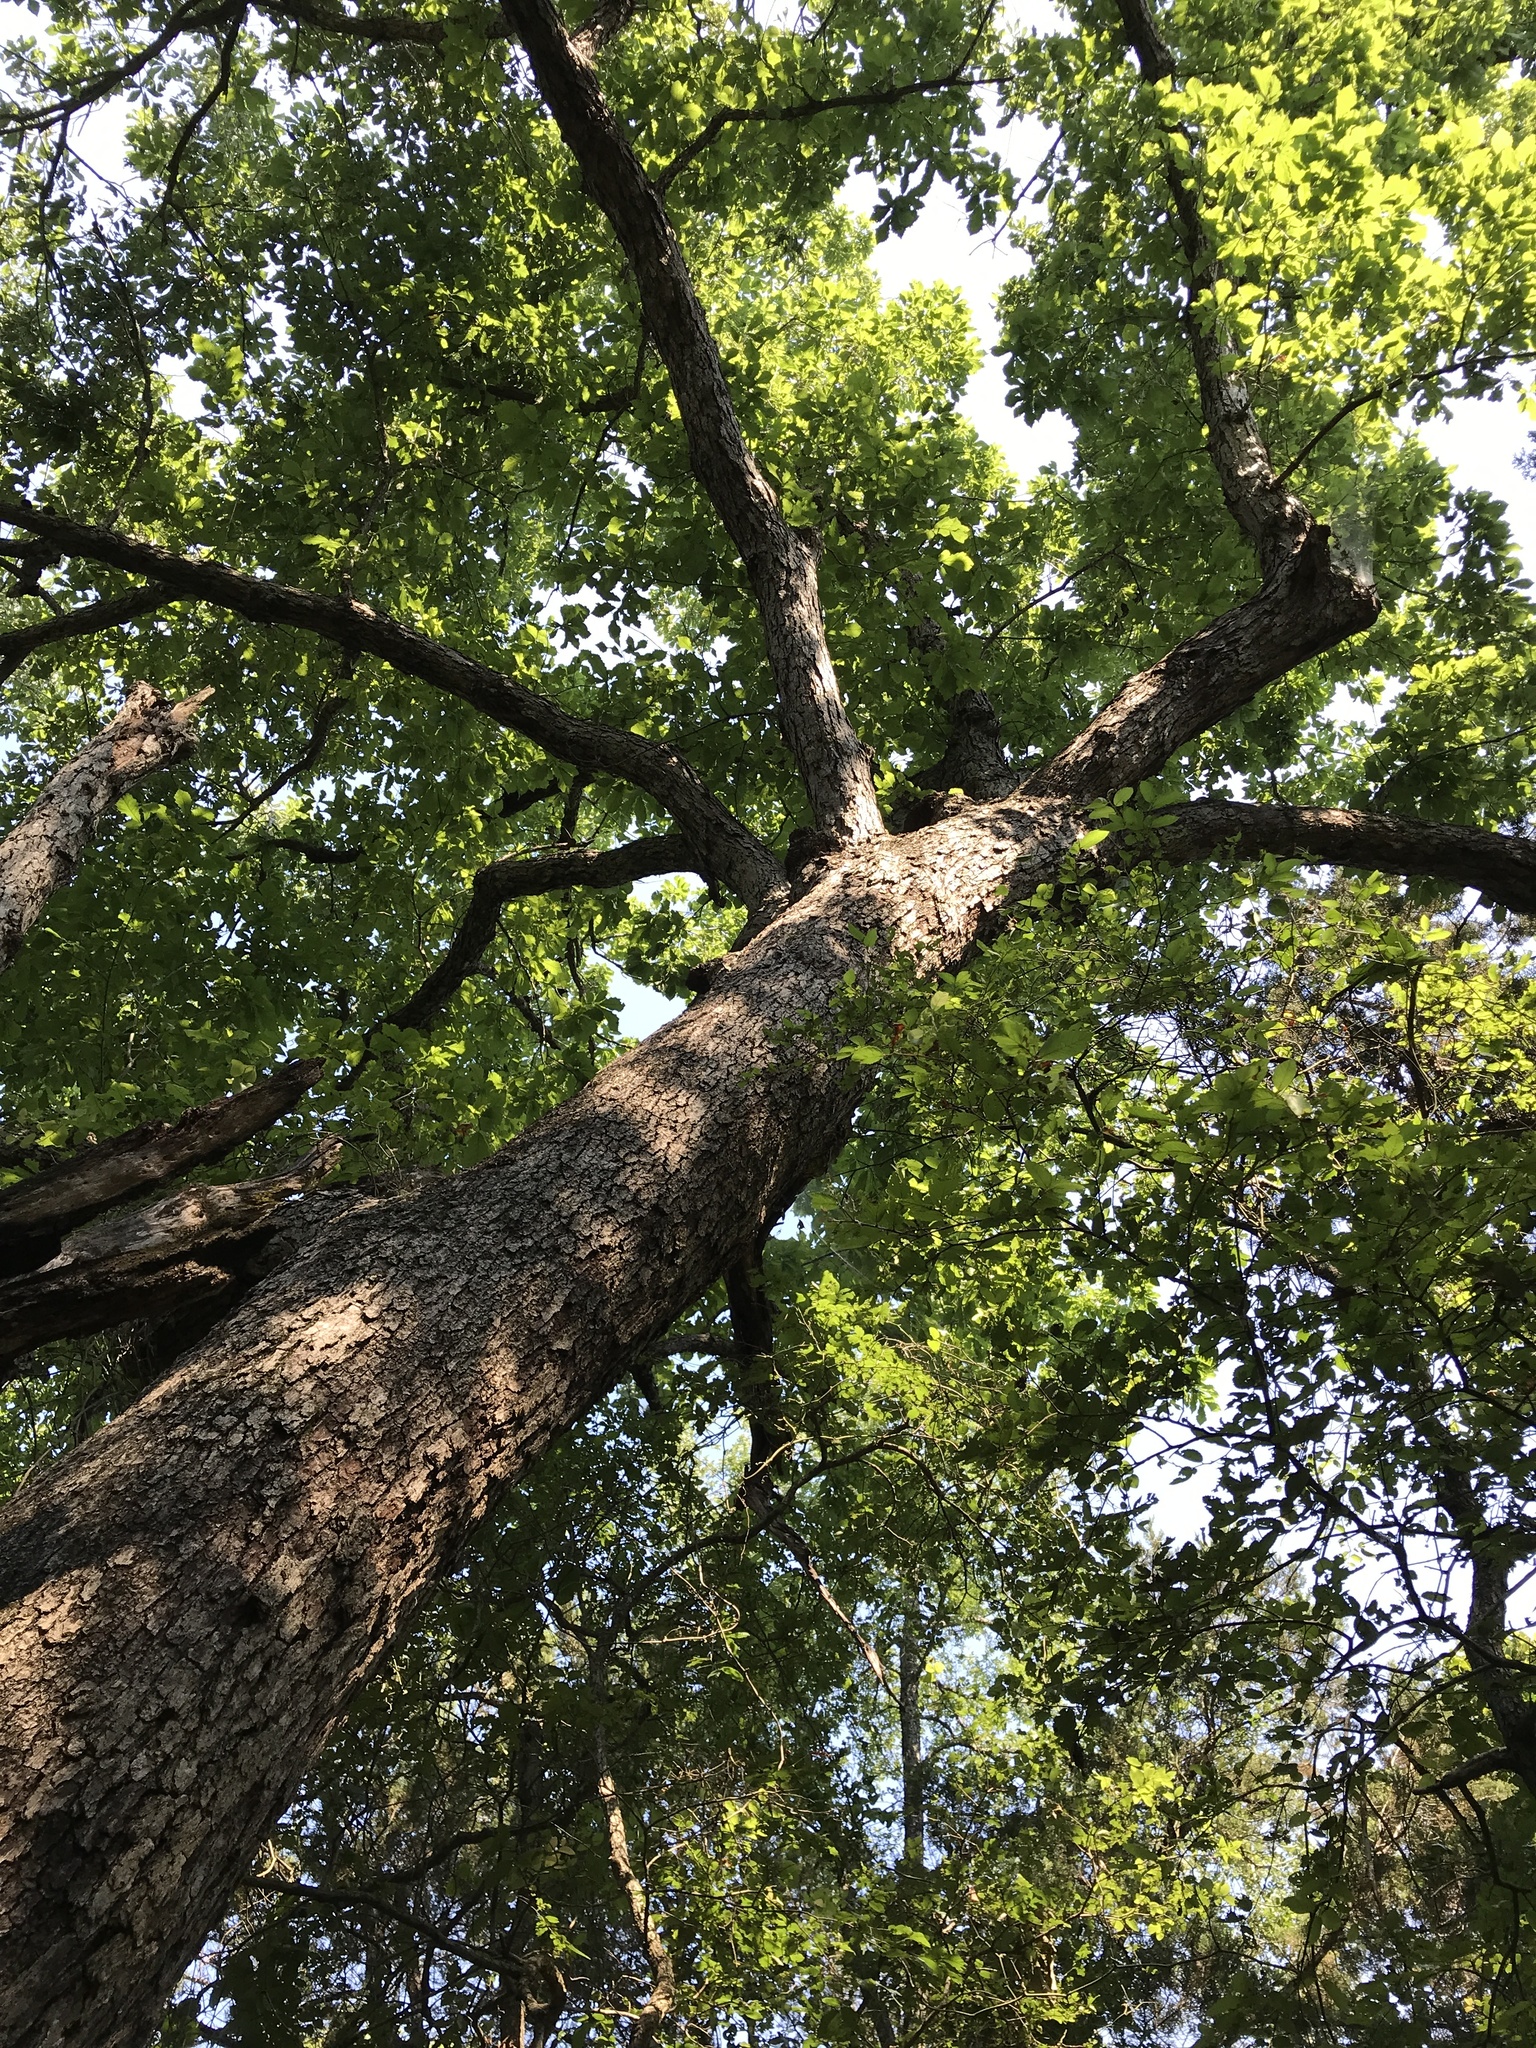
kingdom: Plantae
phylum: Tracheophyta
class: Magnoliopsida
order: Fagales
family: Fagaceae
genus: Quercus
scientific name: Quercus muehlenbergii
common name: Chinkapin oak
